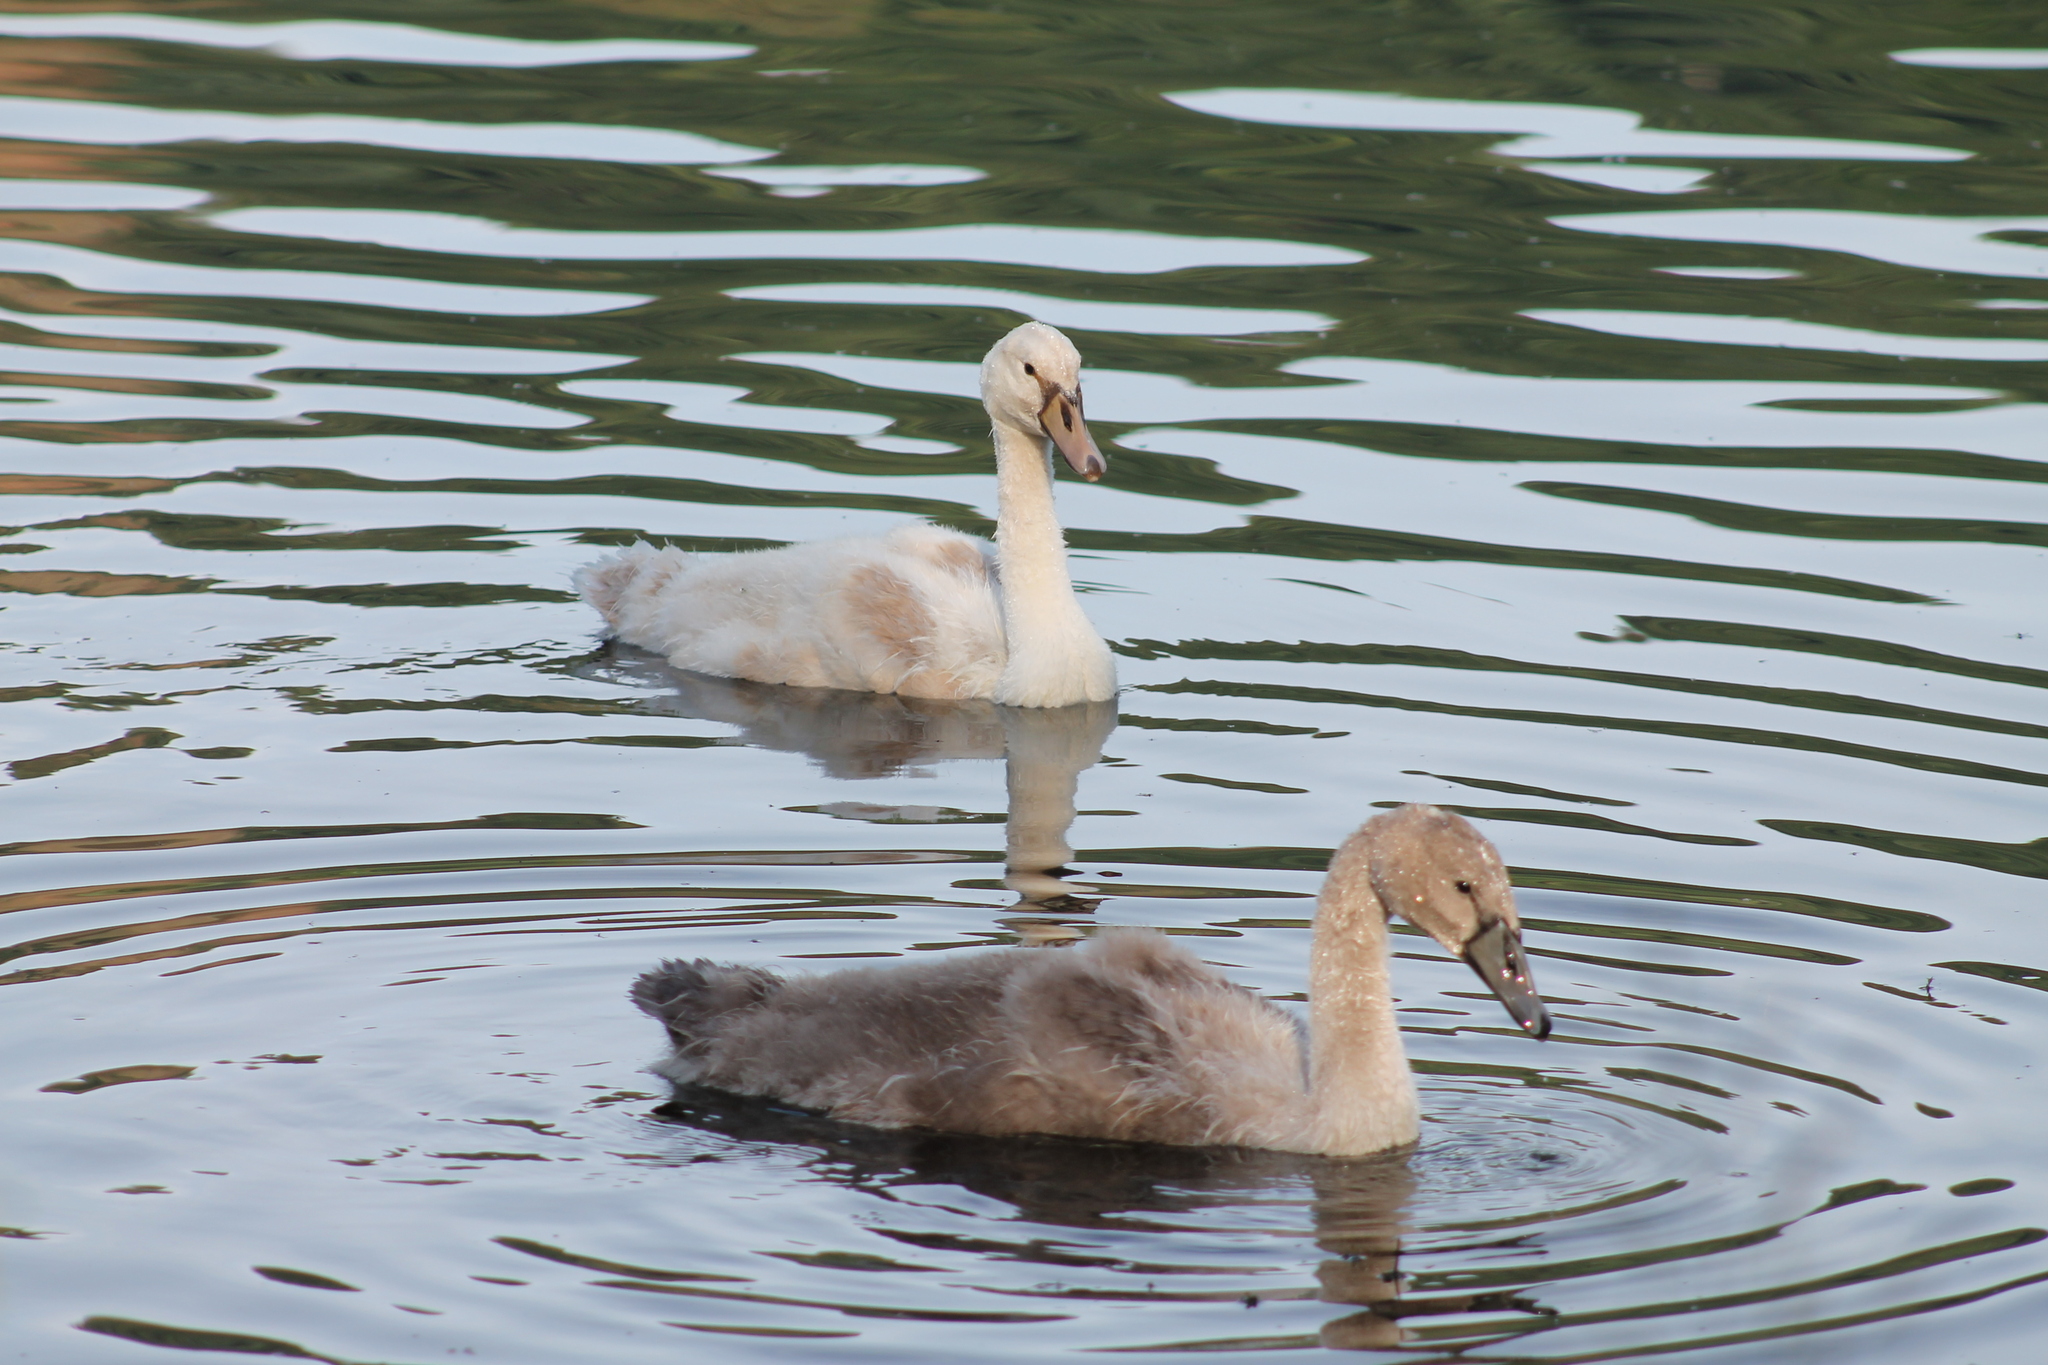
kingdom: Animalia
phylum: Chordata
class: Aves
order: Anseriformes
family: Anatidae
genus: Cygnus
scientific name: Cygnus olor
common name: Mute swan
